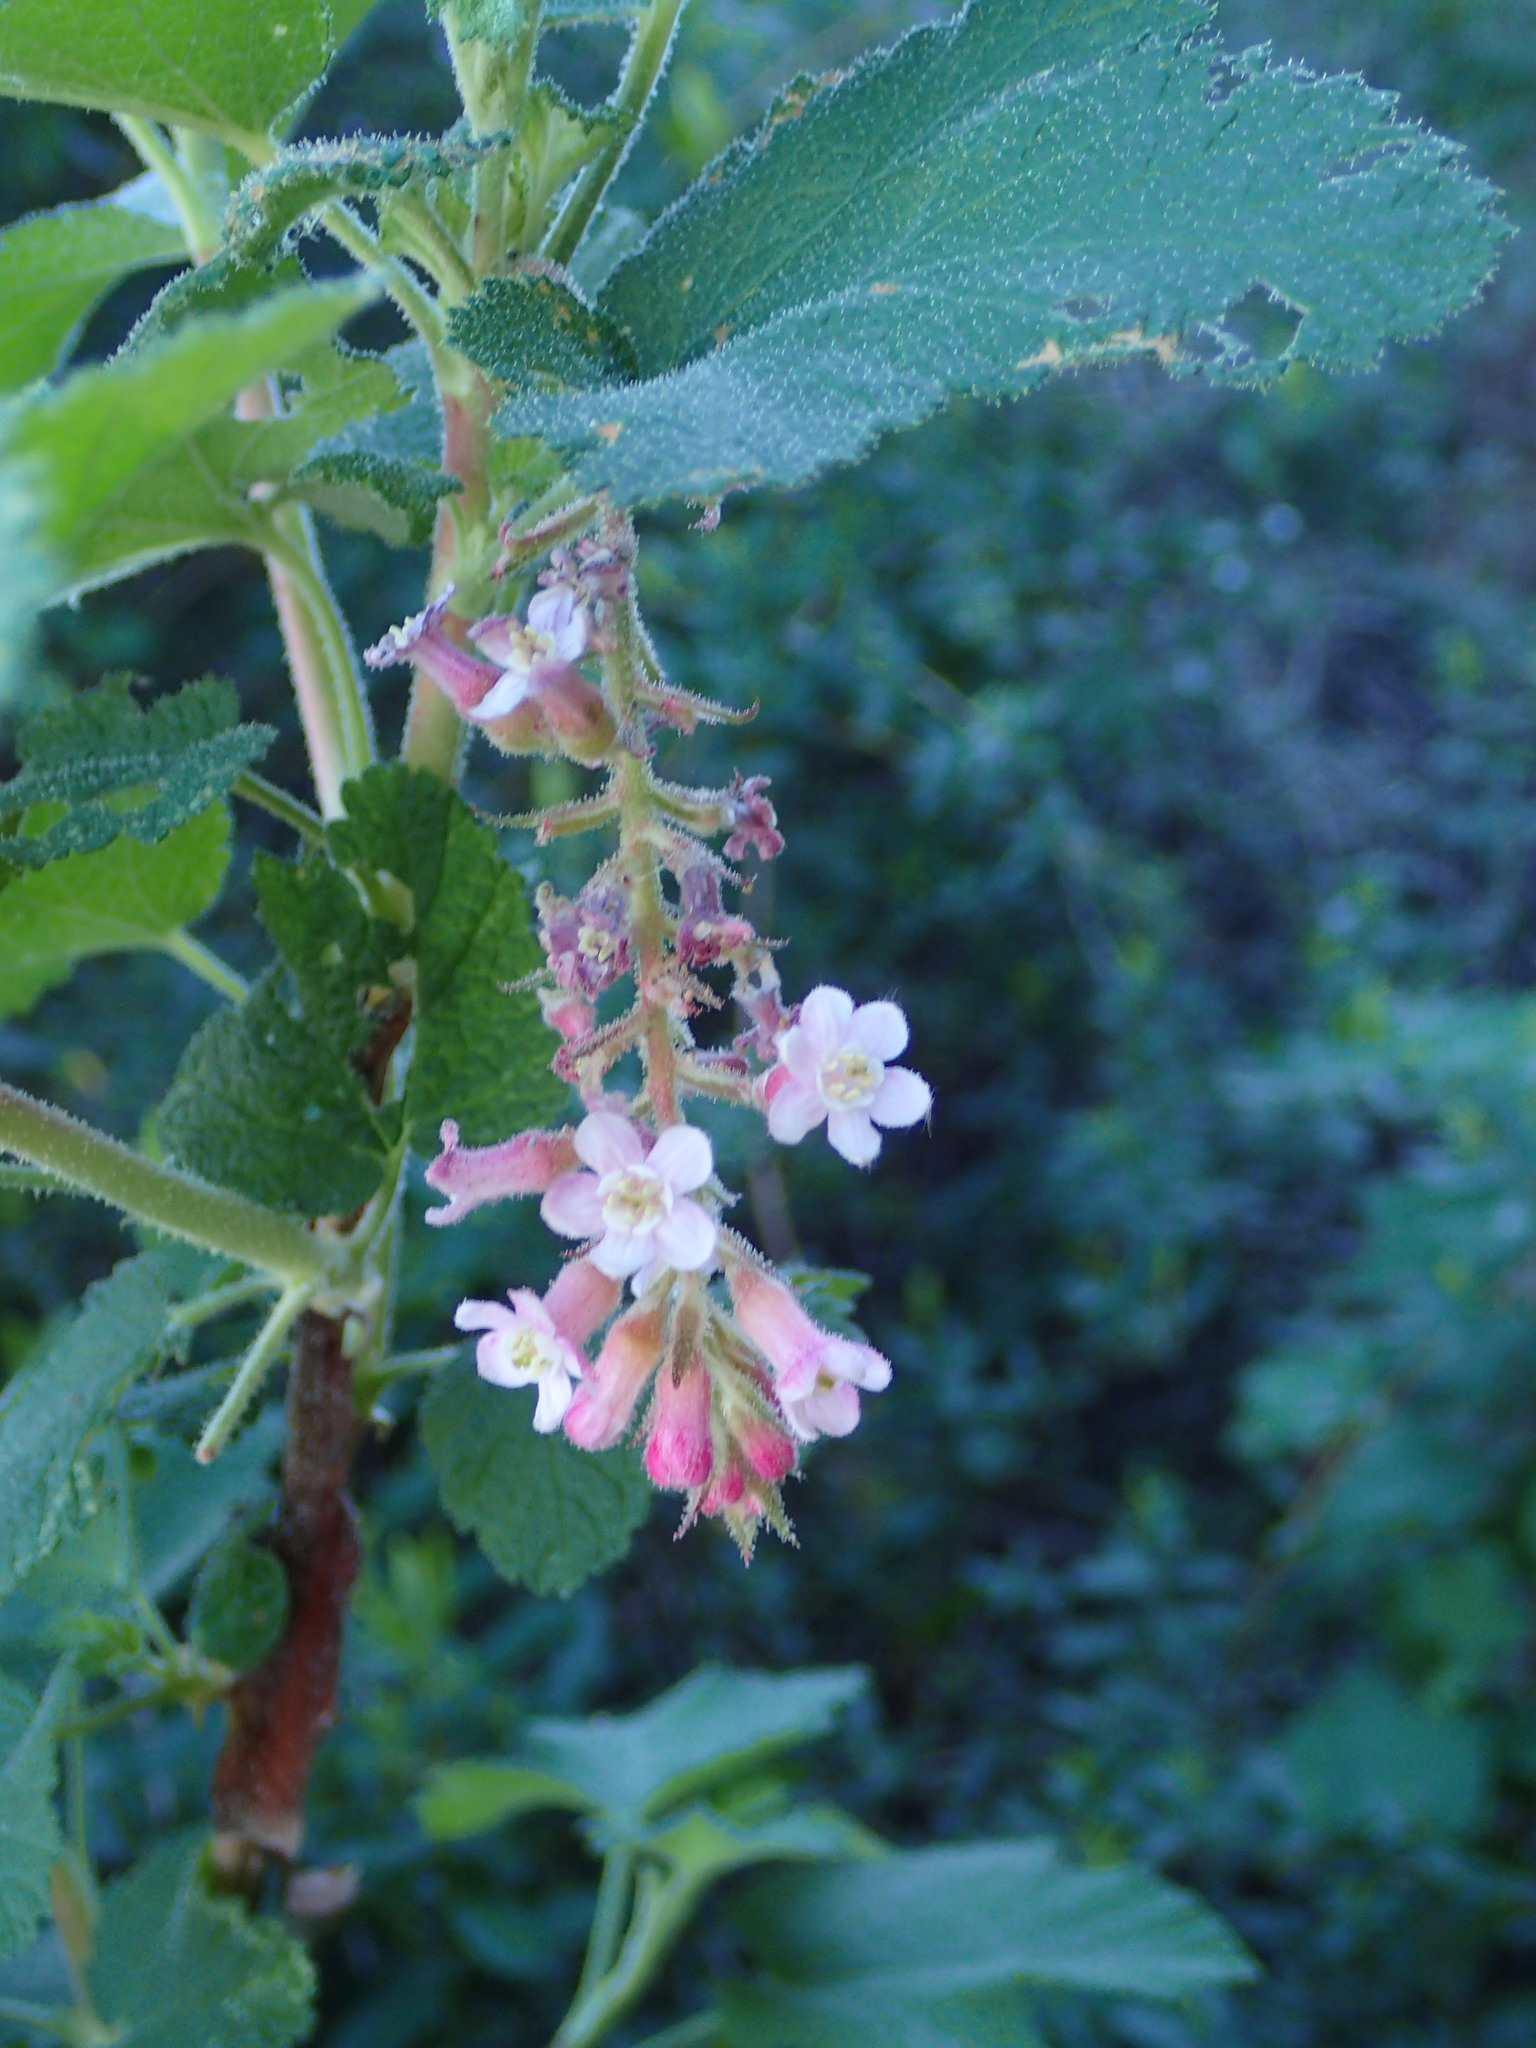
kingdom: Plantae
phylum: Tracheophyta
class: Magnoliopsida
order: Saxifragales
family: Grossulariaceae
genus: Ribes
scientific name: Ribes malvaceum
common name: Chaparral currant
